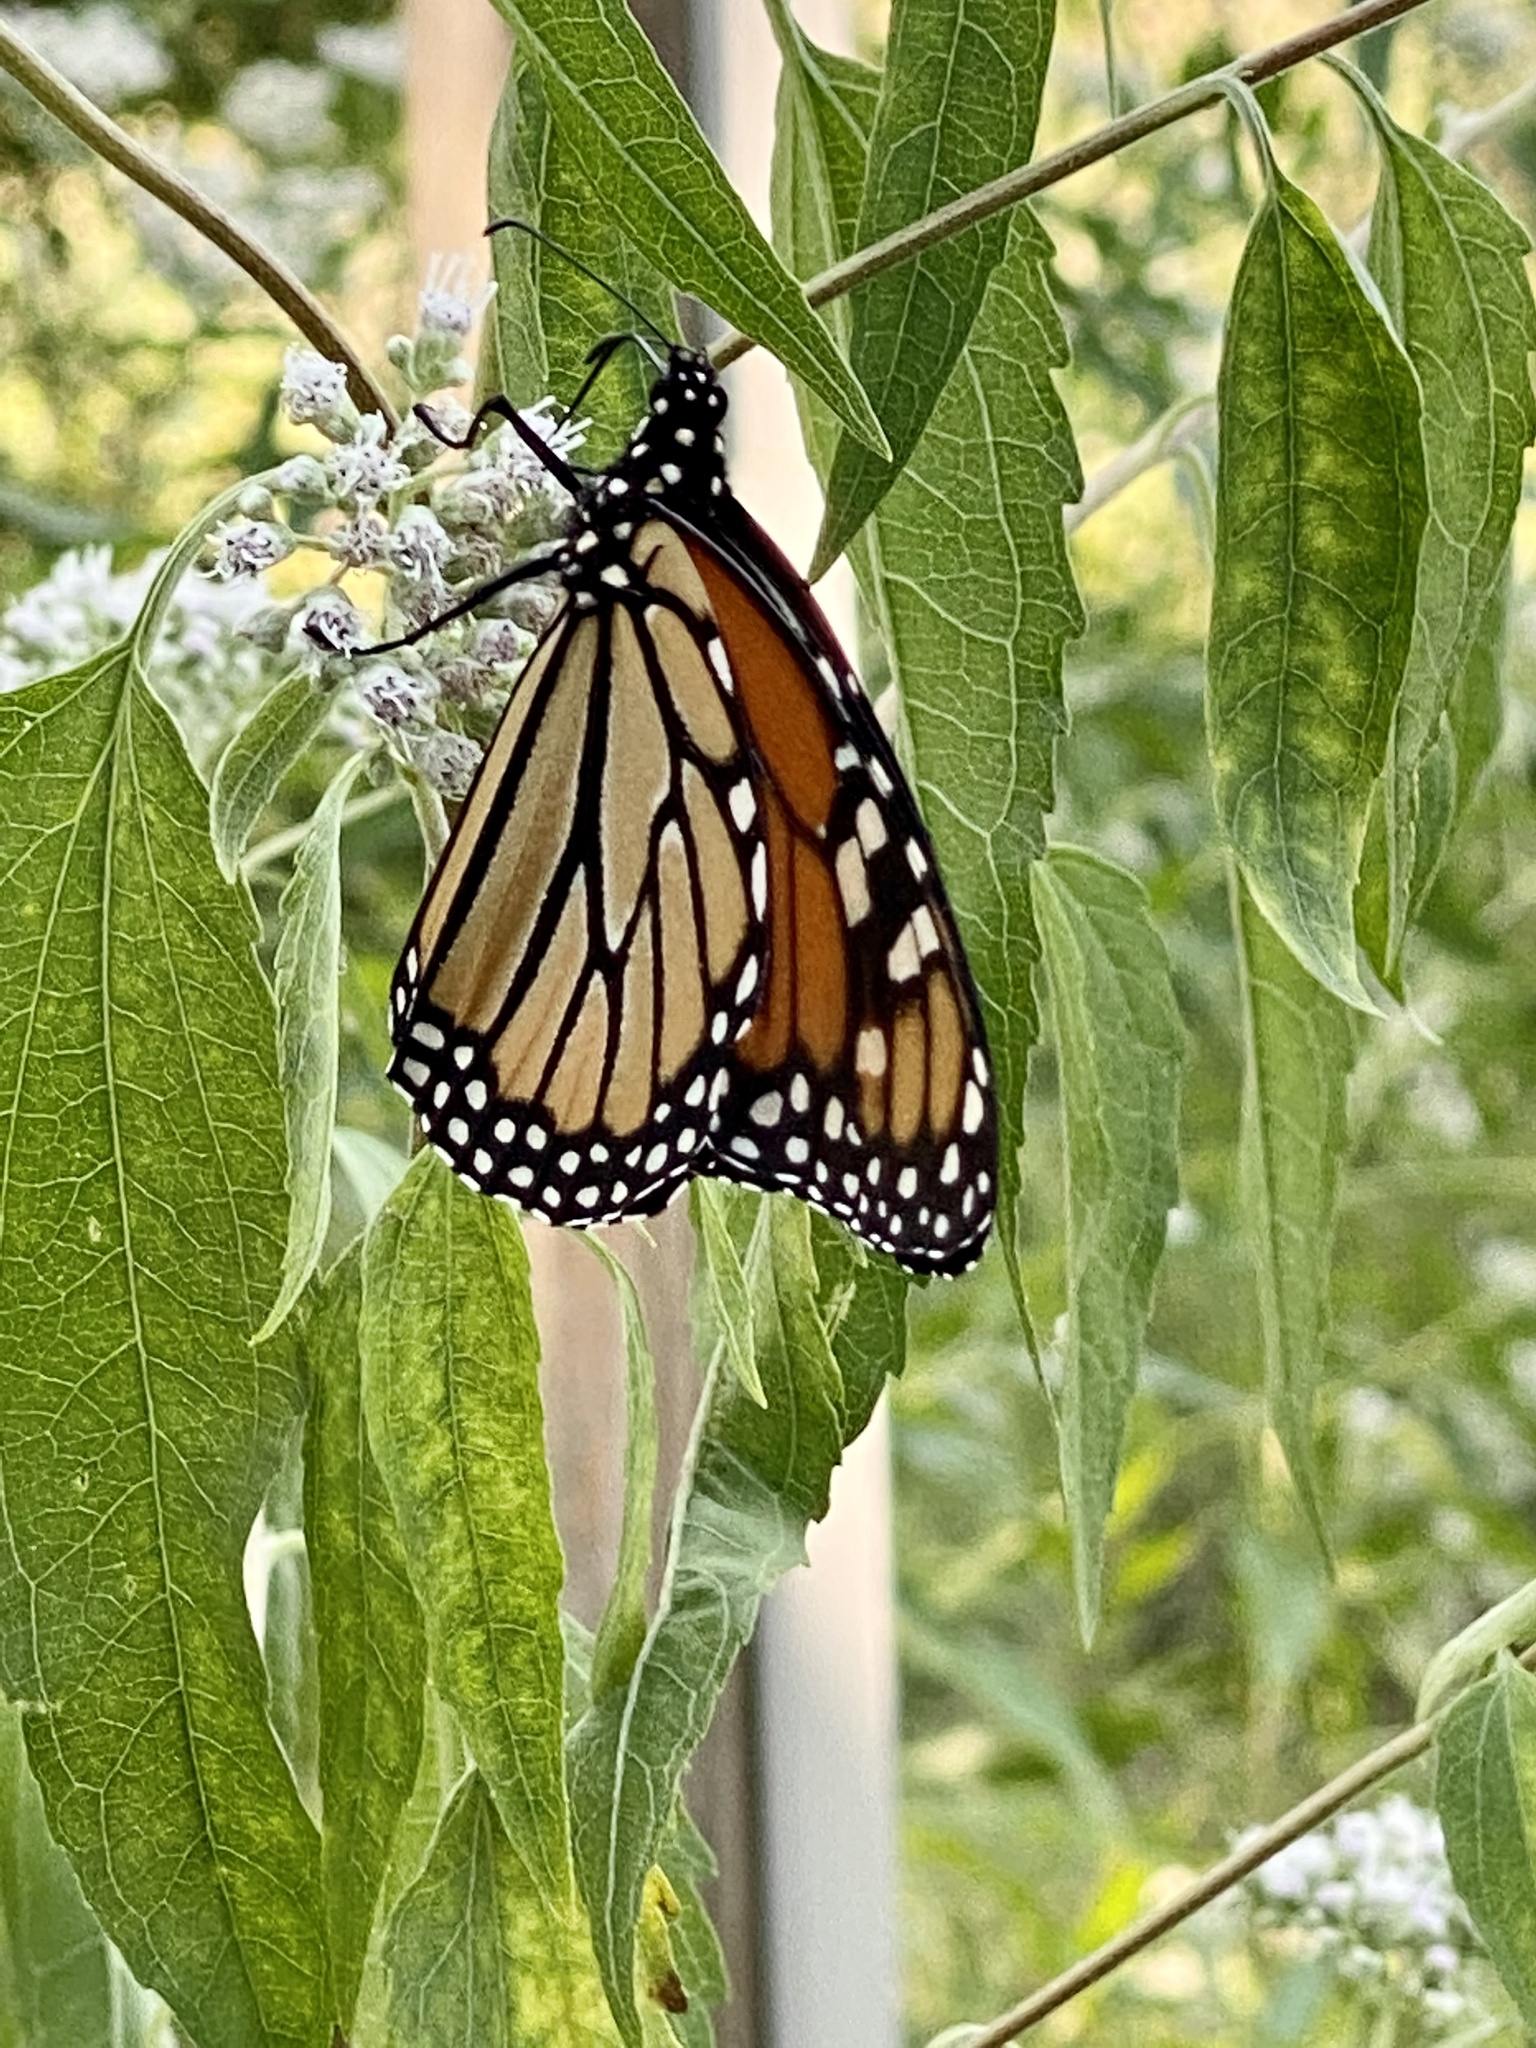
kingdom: Animalia
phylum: Arthropoda
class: Insecta
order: Lepidoptera
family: Nymphalidae
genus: Danaus
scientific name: Danaus plexippus
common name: Monarch
